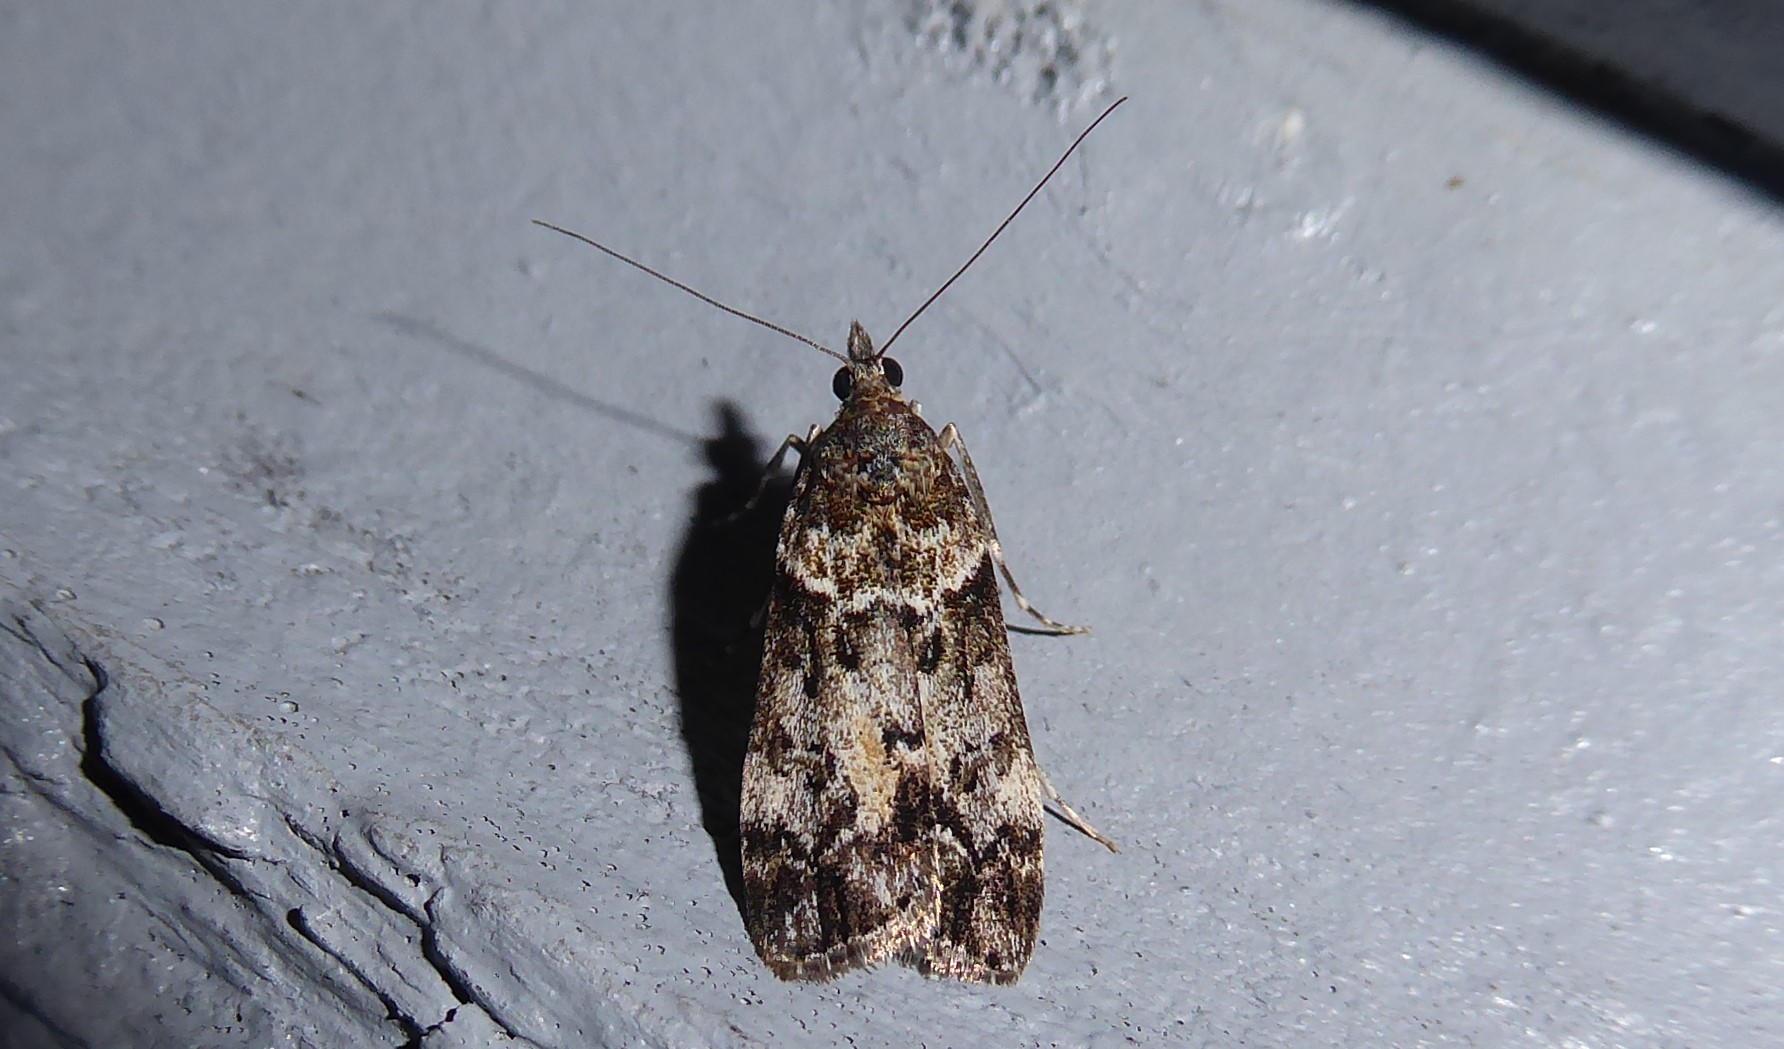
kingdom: Animalia
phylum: Arthropoda
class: Insecta
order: Lepidoptera
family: Crambidae
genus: Eudonia
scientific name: Eudonia submarginalis
